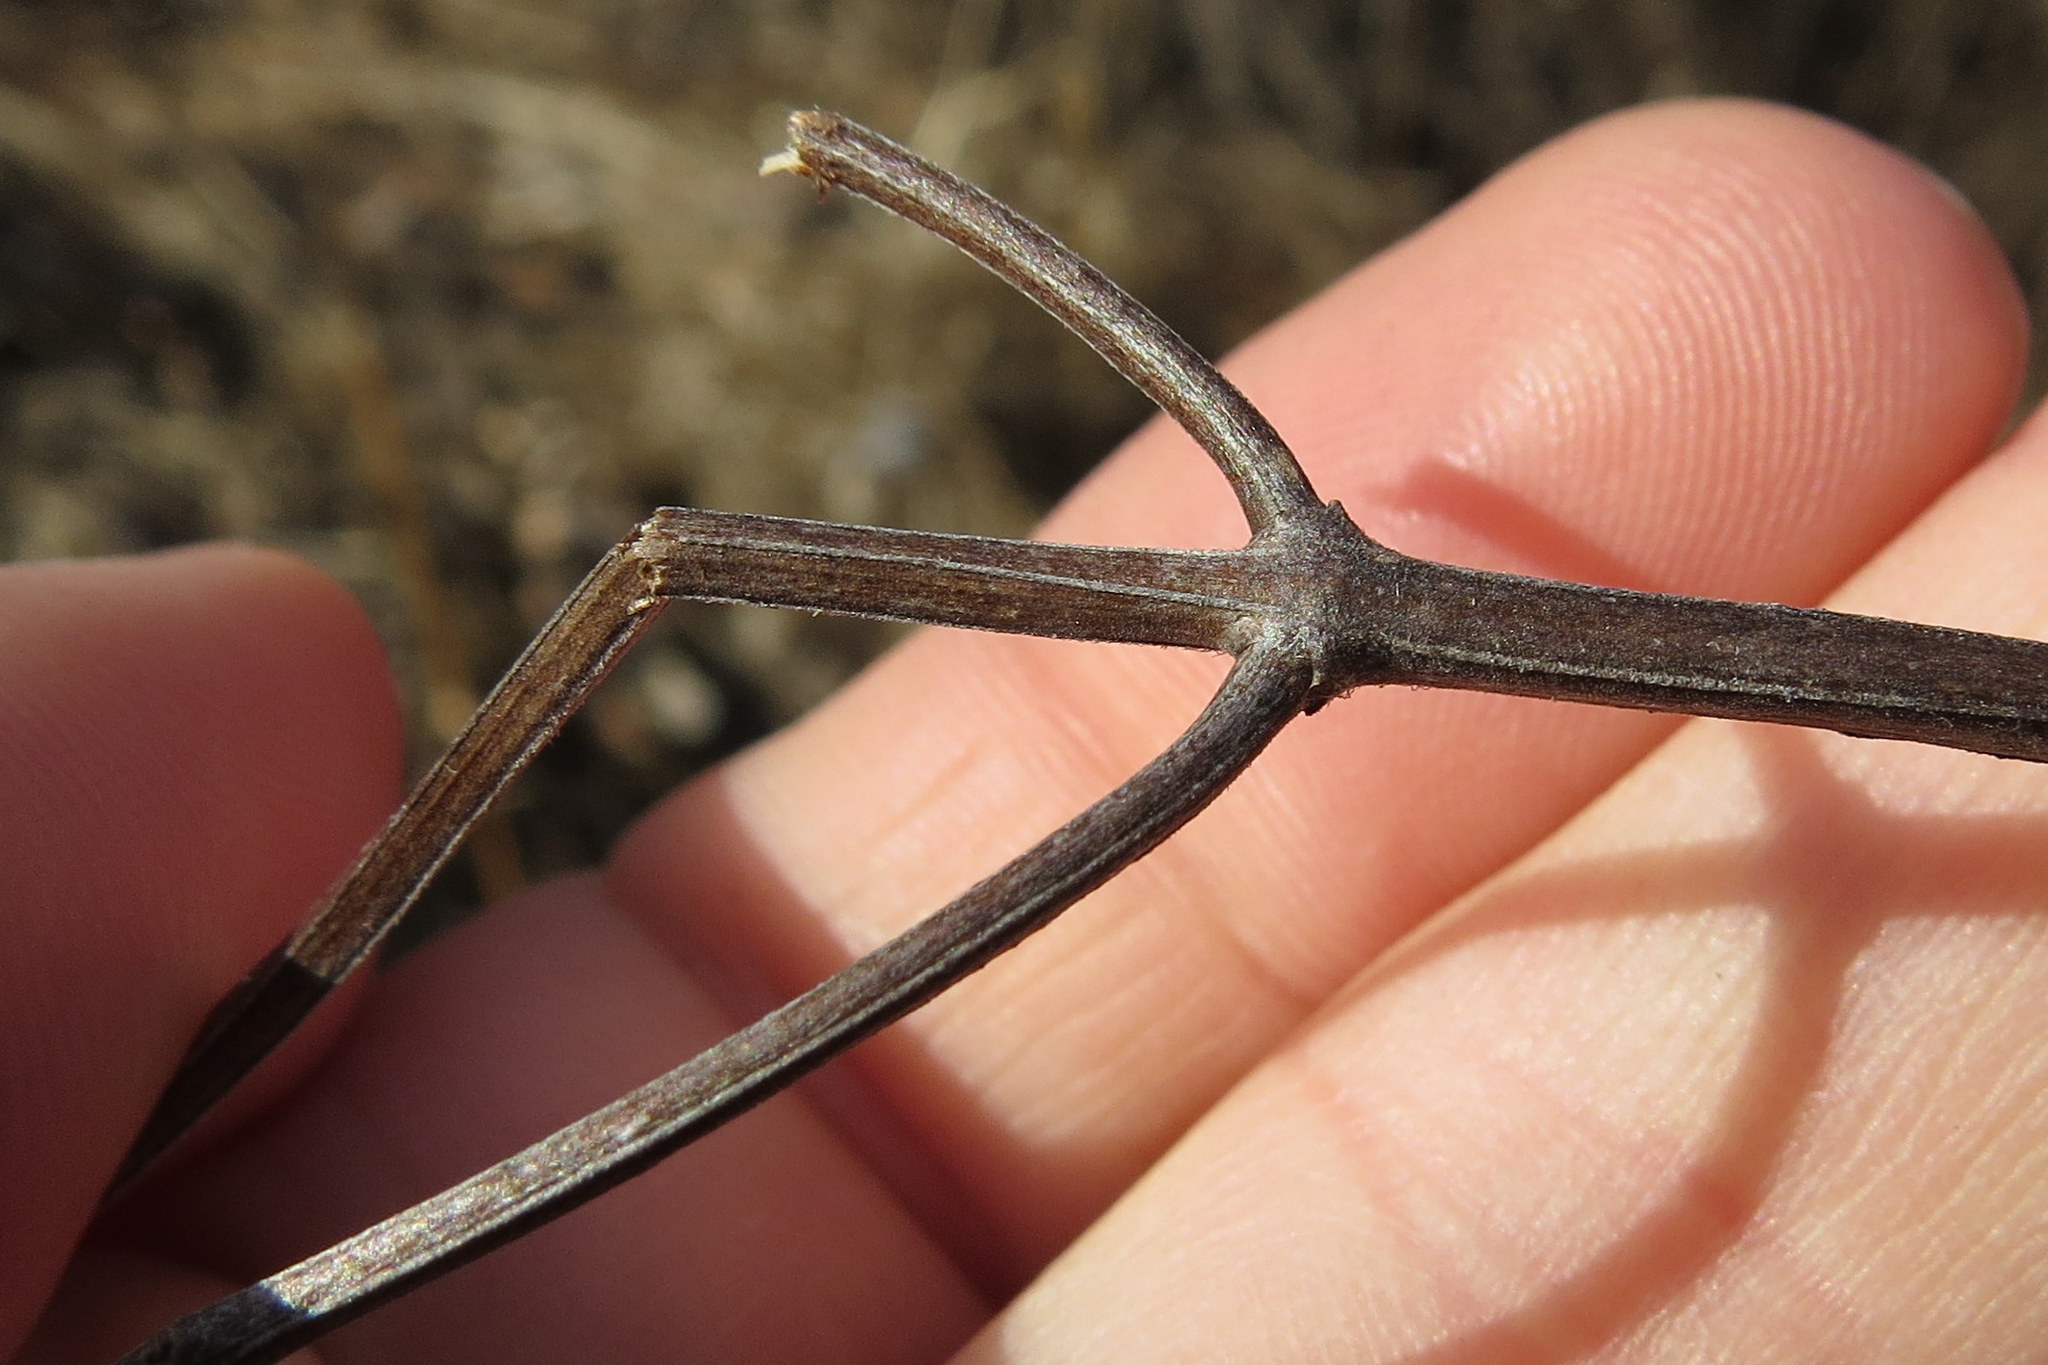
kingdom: Plantae
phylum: Tracheophyta
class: Magnoliopsida
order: Lamiales
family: Lamiaceae
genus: Pycnanthemum
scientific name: Pycnanthemum virginianum
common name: Virginia mountain-mint
